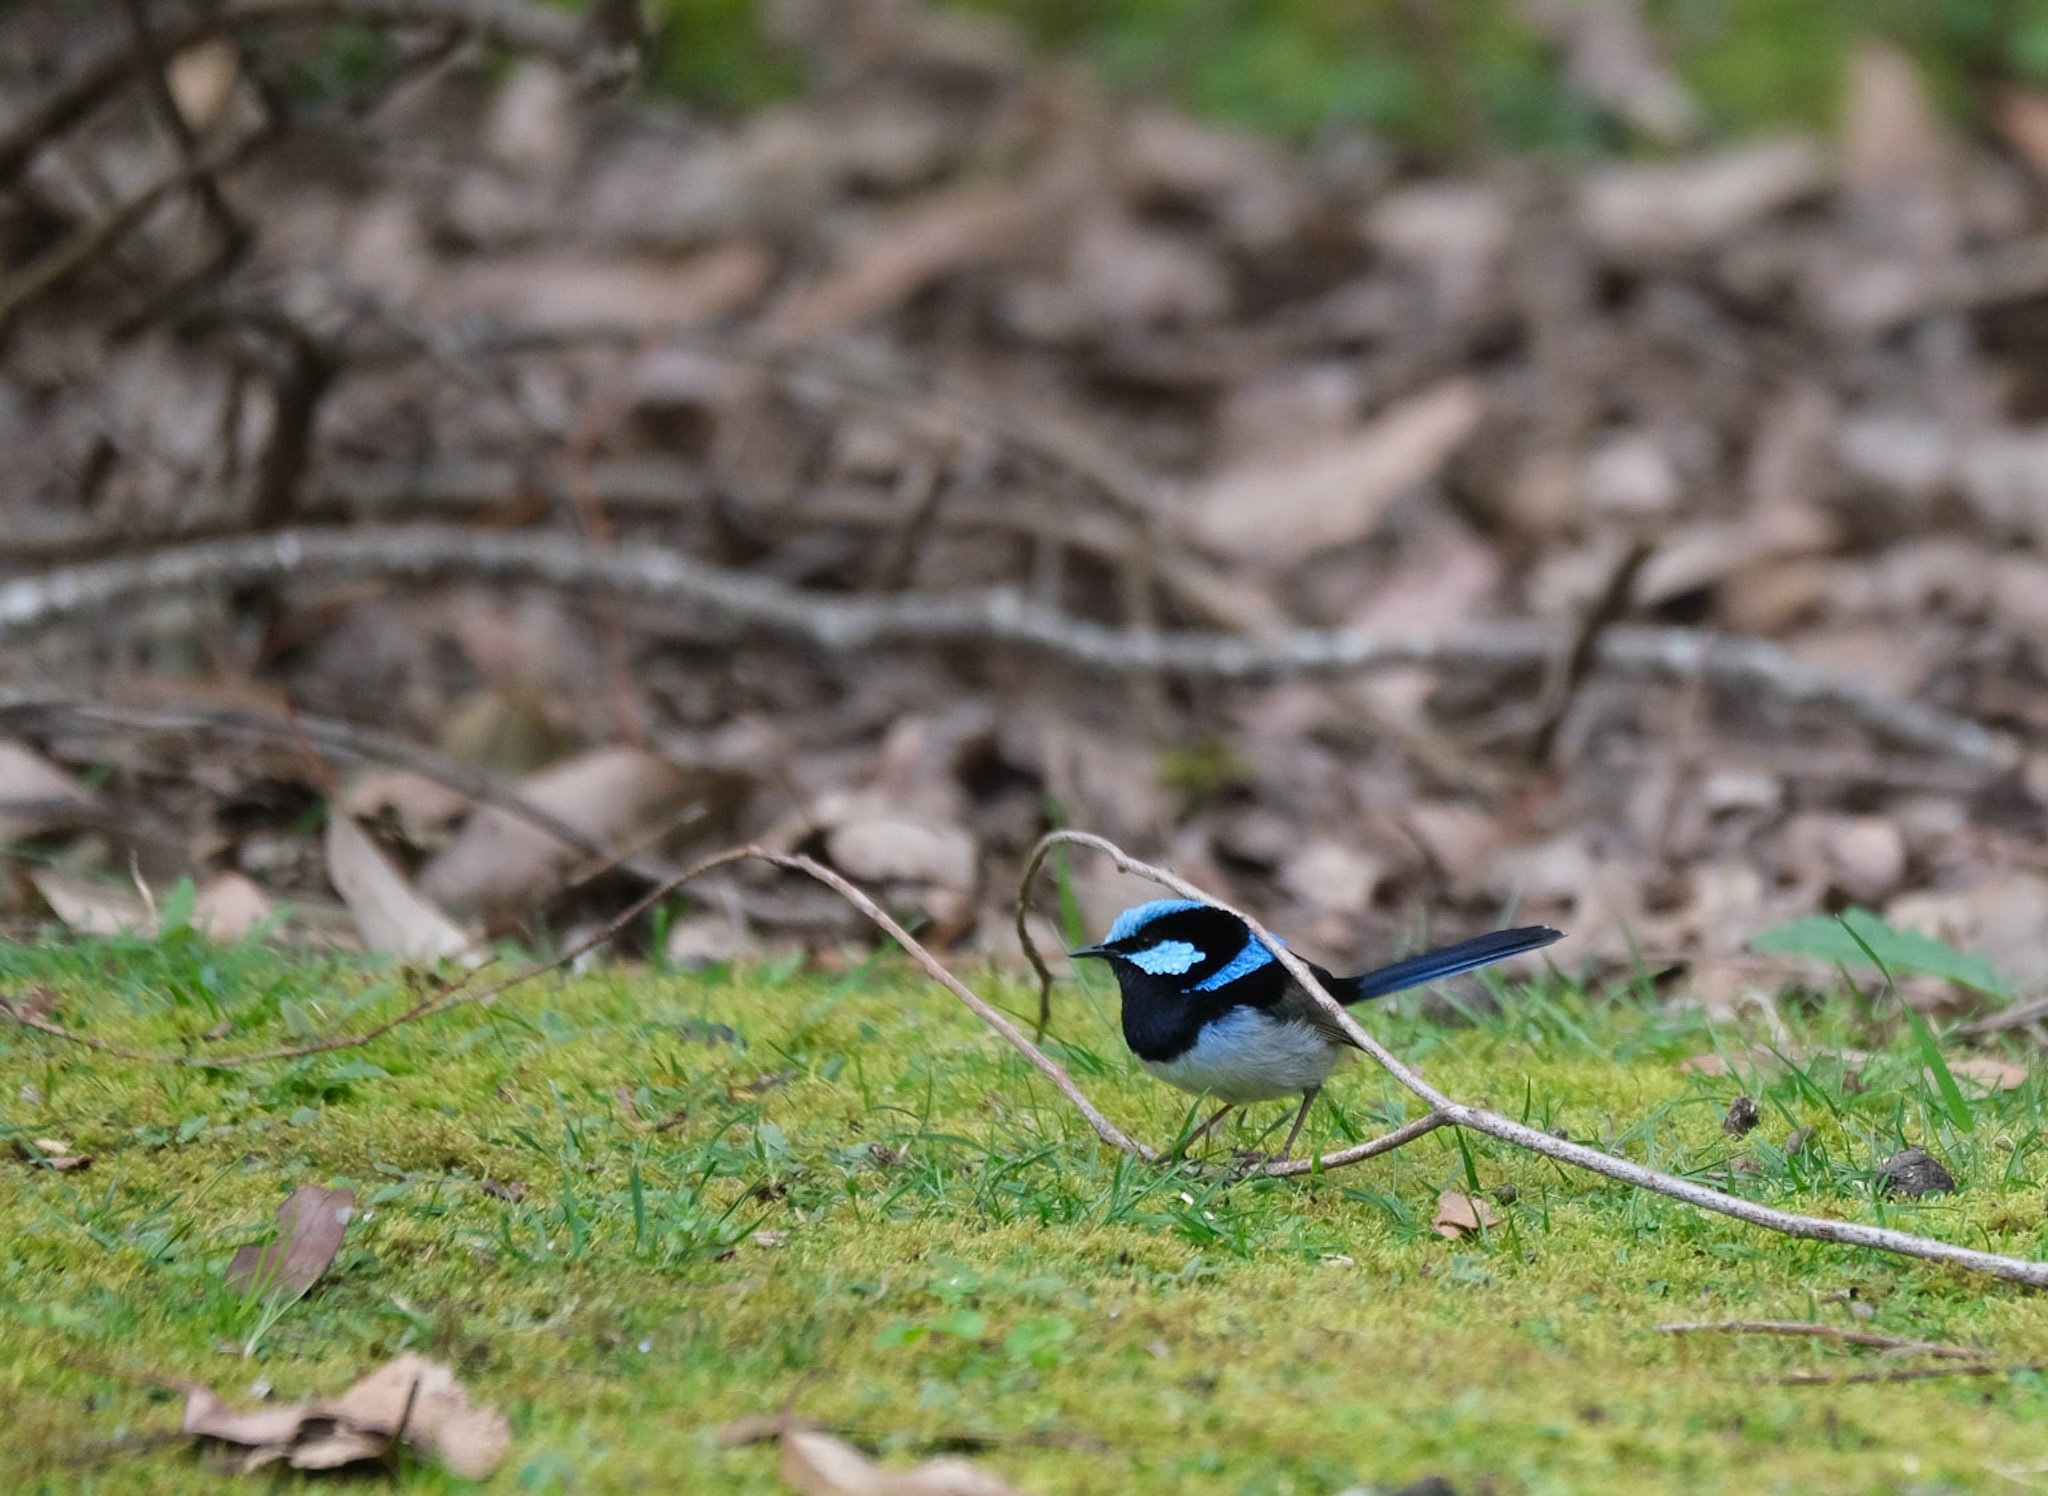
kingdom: Animalia
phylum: Chordata
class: Aves
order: Passeriformes
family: Maluridae
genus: Malurus
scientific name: Malurus cyaneus
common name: Superb fairywren
